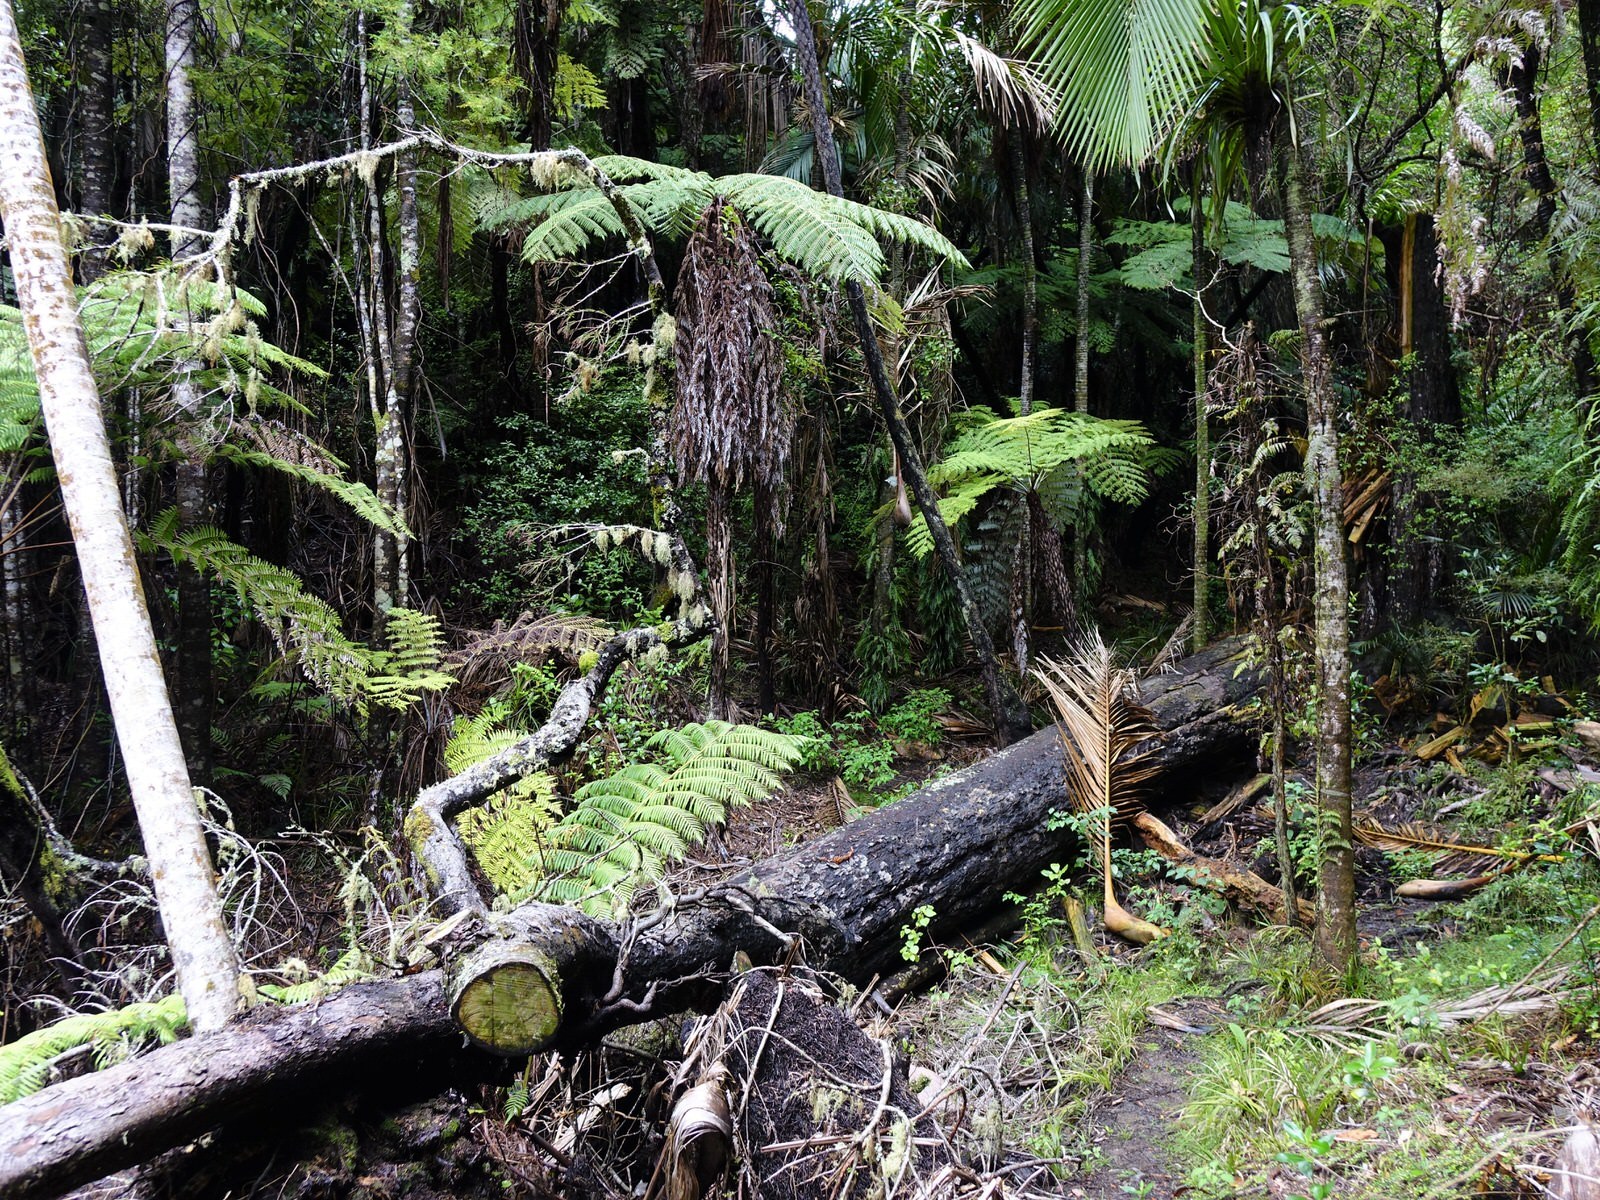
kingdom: Plantae
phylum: Tracheophyta
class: Pinopsida
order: Pinales
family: Podocarpaceae
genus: Dacrycarpus
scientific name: Dacrycarpus dacrydioides
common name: White pine
